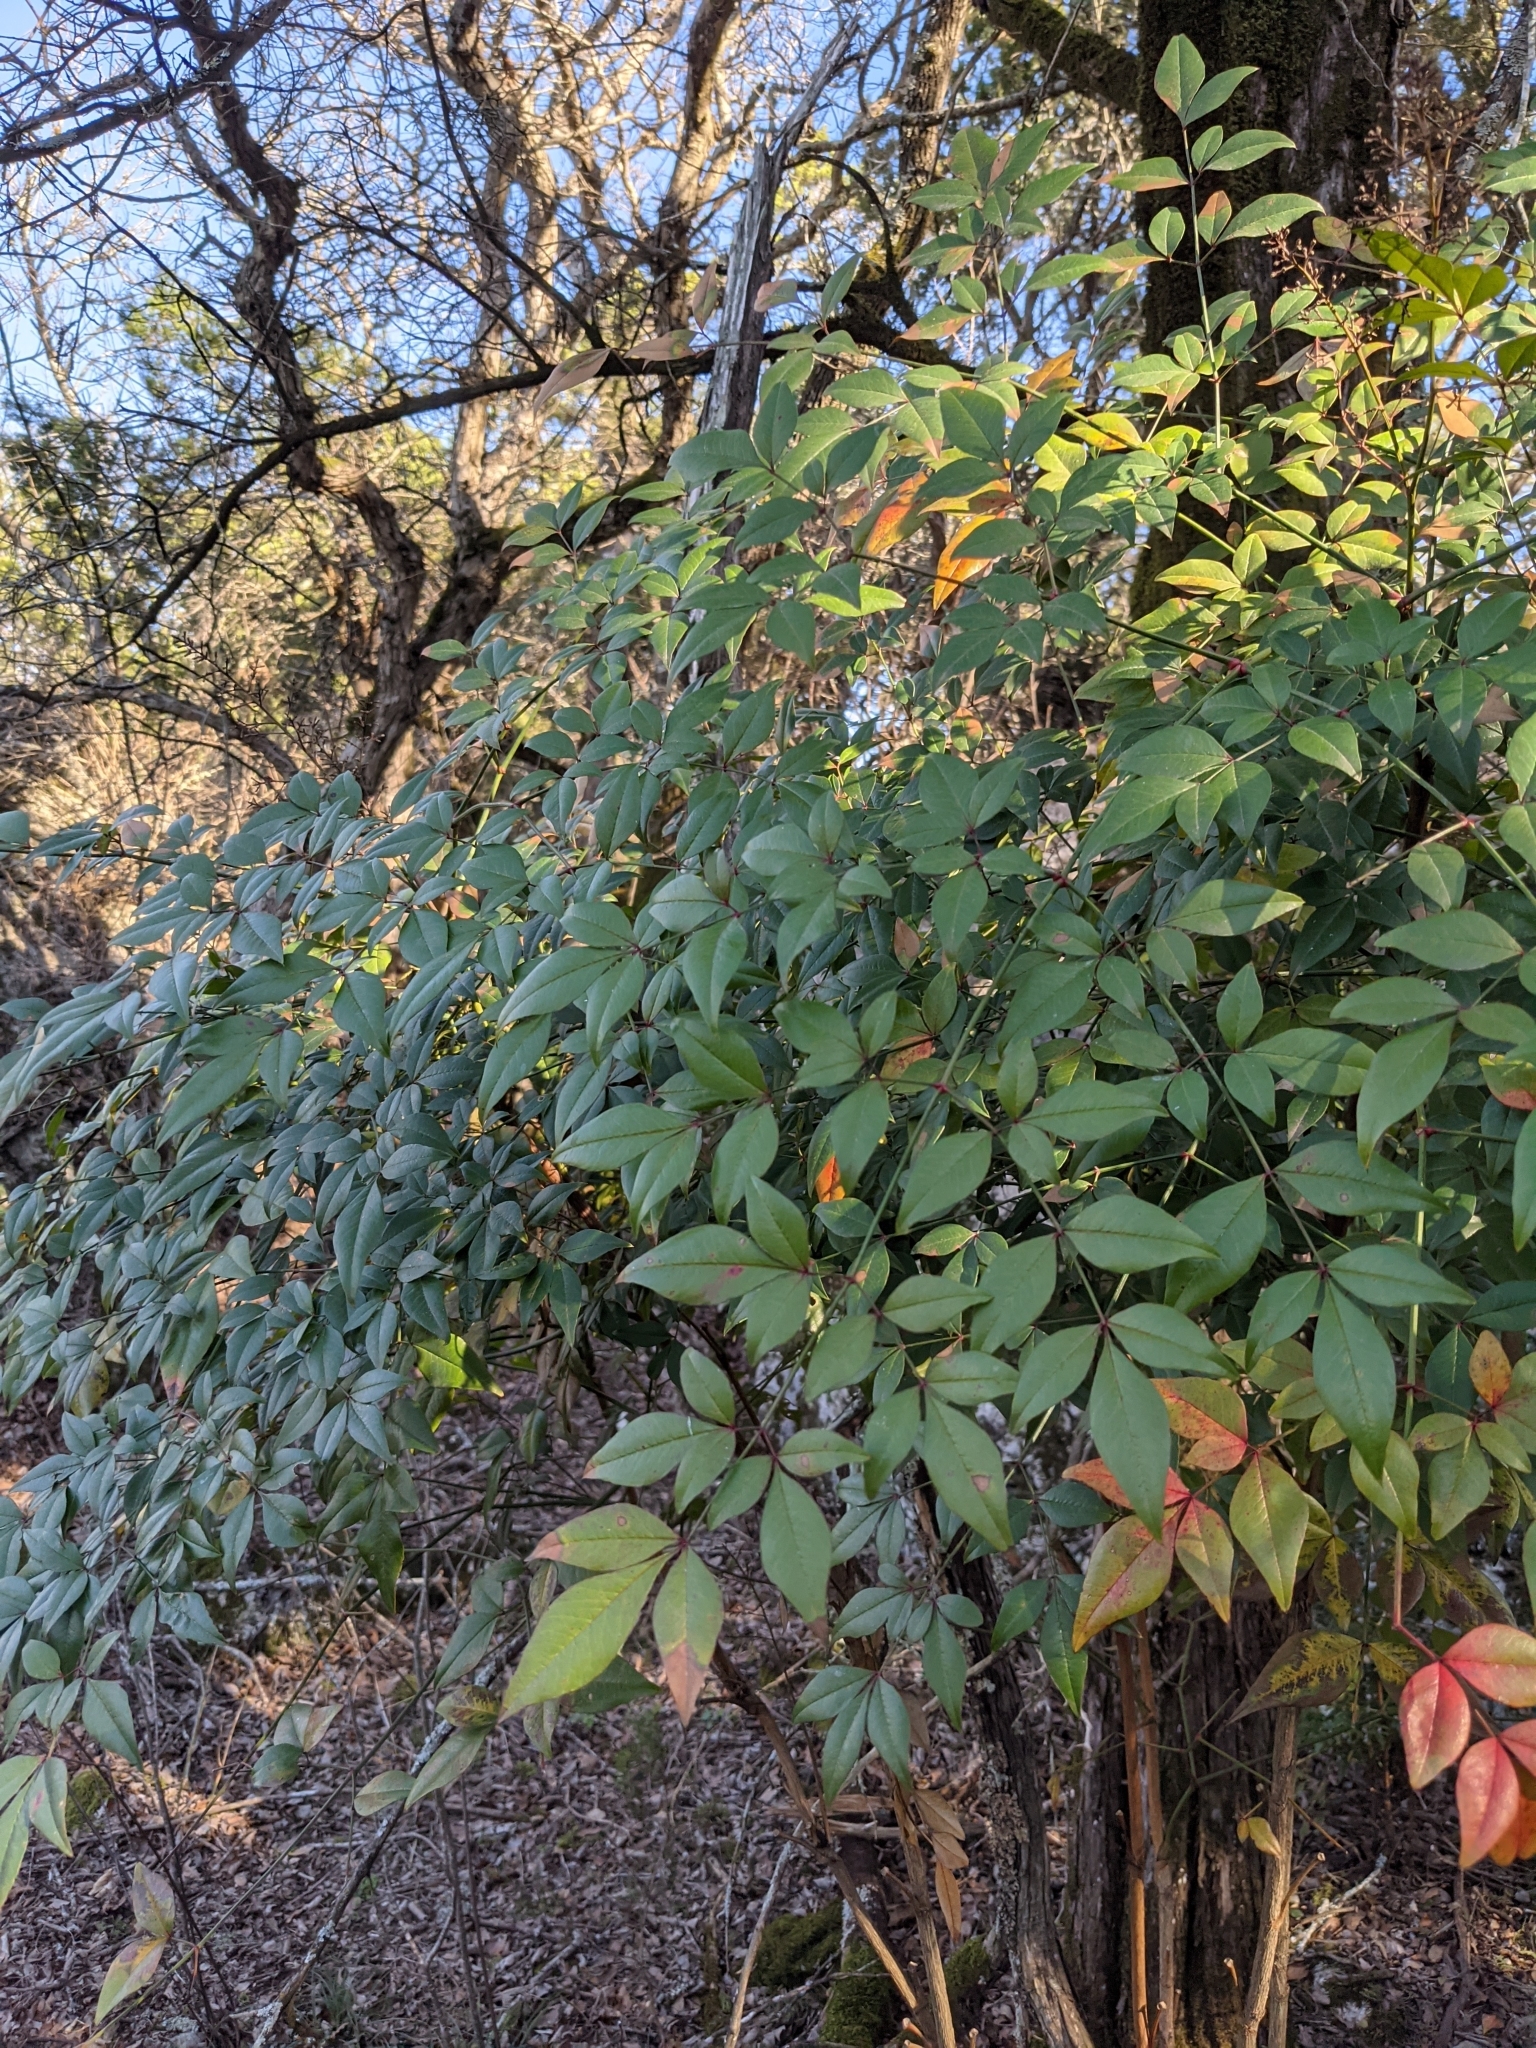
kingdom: Plantae
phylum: Tracheophyta
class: Magnoliopsida
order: Ranunculales
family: Berberidaceae
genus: Nandina
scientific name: Nandina domestica
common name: Sacred bamboo
